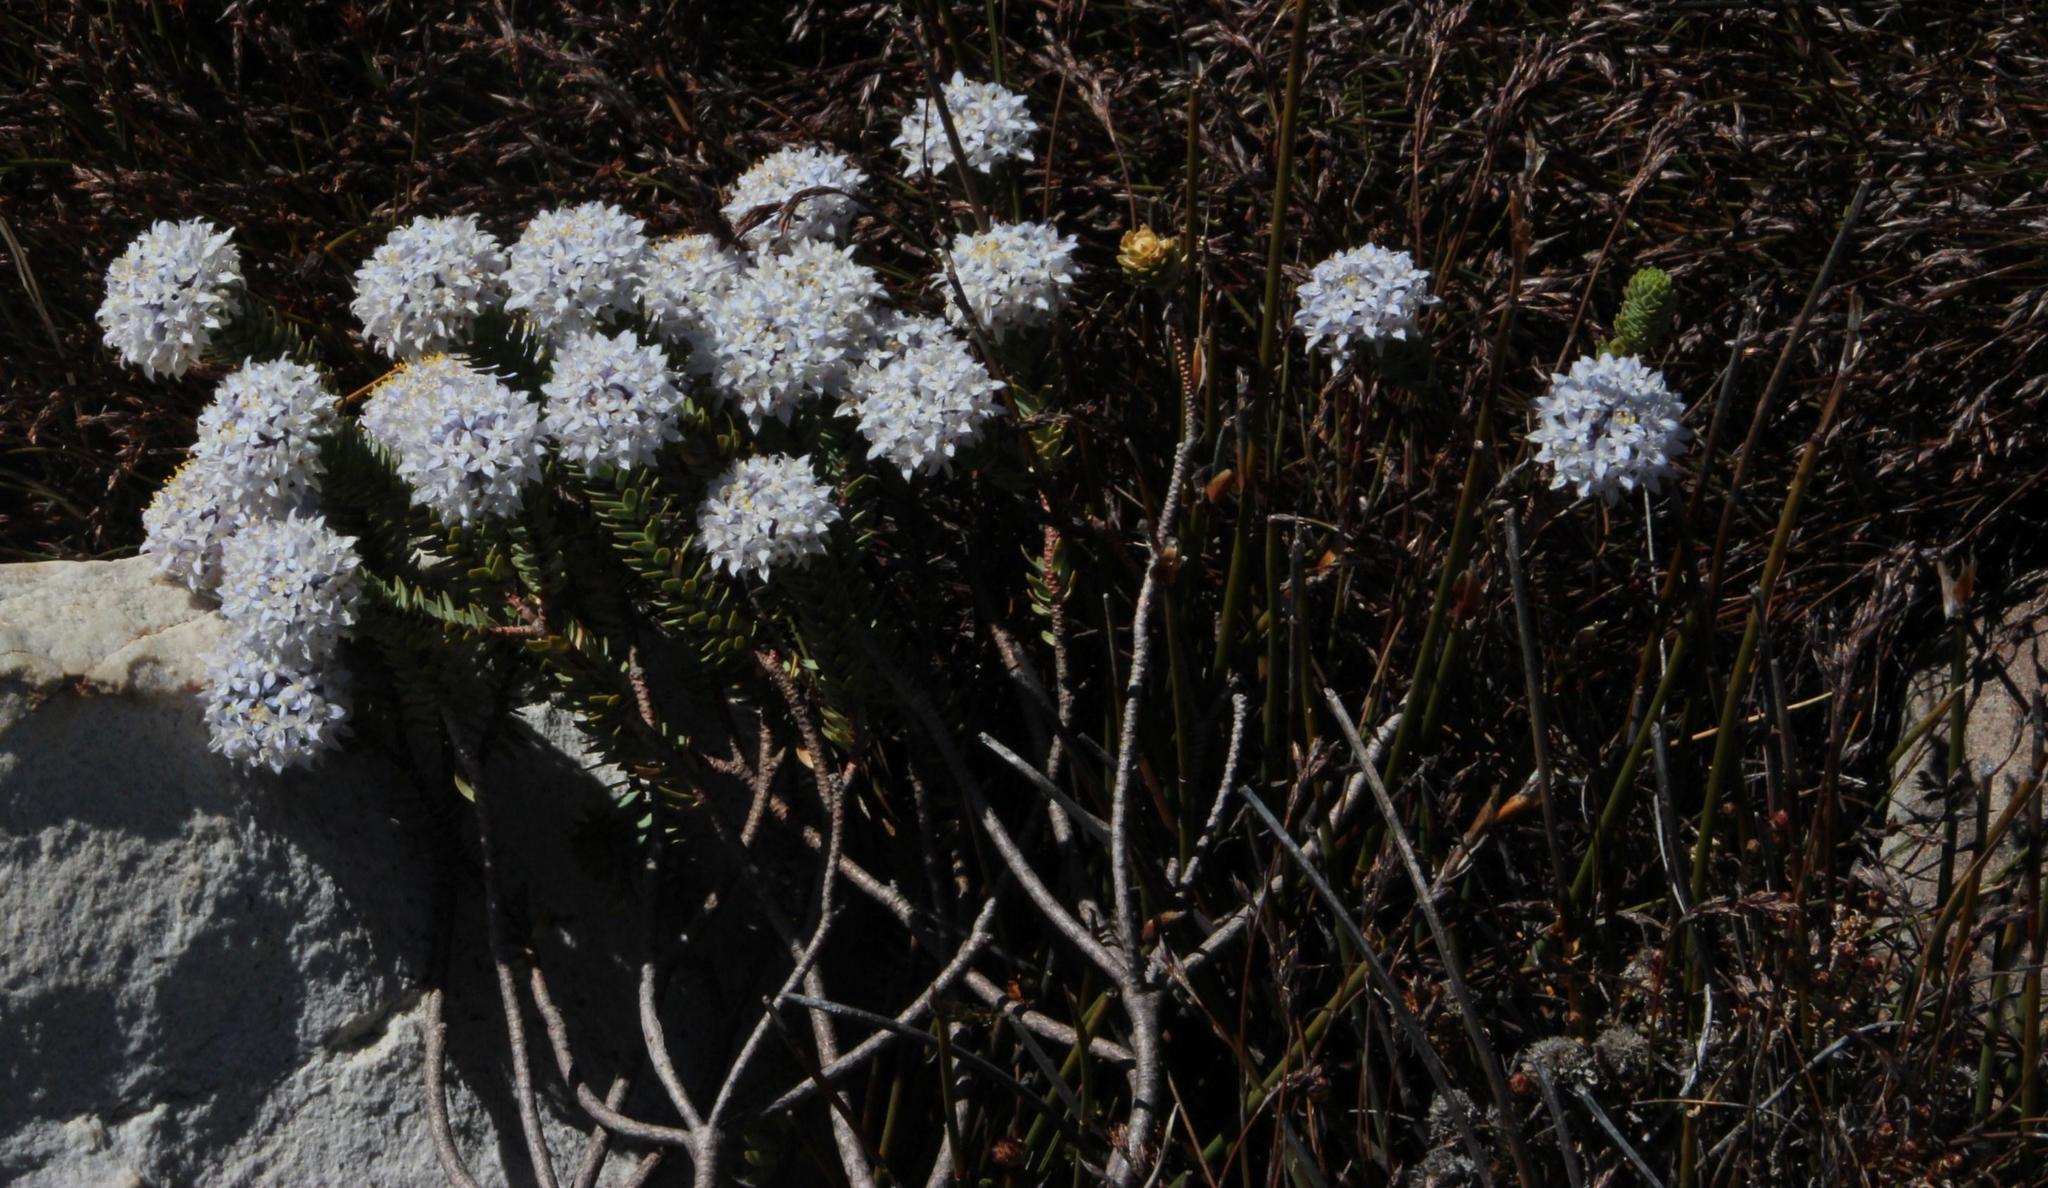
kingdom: Plantae
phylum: Tracheophyta
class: Magnoliopsida
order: Malvales
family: Thymelaeaceae
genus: Lachnaea
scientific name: Lachnaea pomposa
